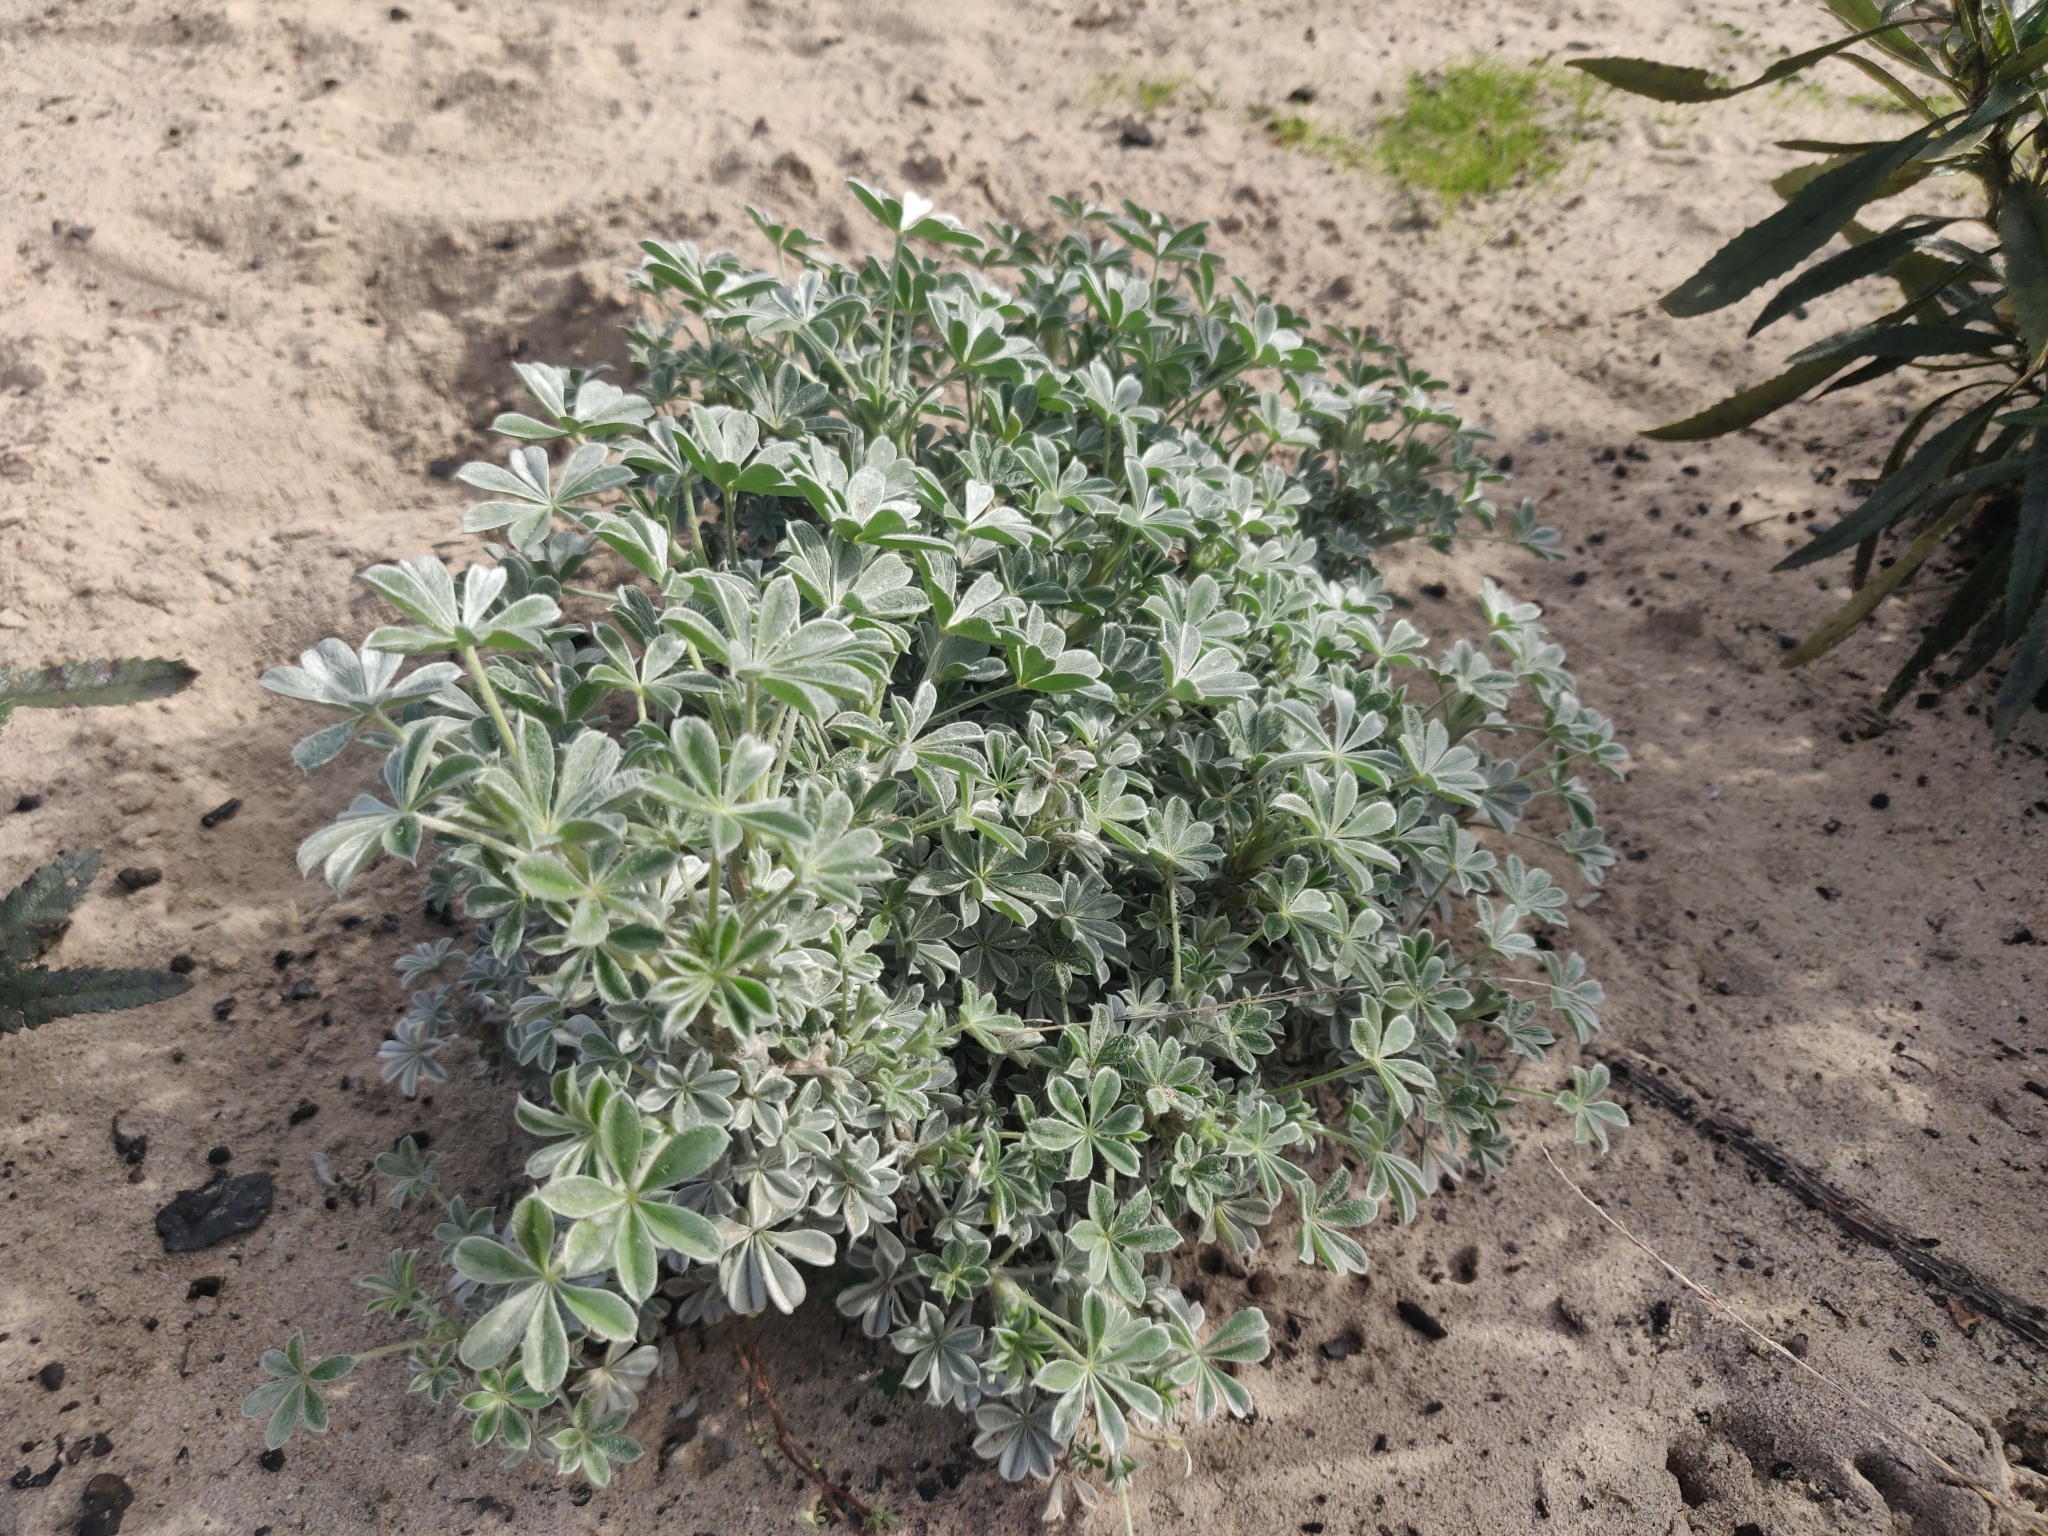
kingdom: Plantae
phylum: Tracheophyta
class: Magnoliopsida
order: Fabales
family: Fabaceae
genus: Lupinus
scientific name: Lupinus albifrons
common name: Foothill lupine
